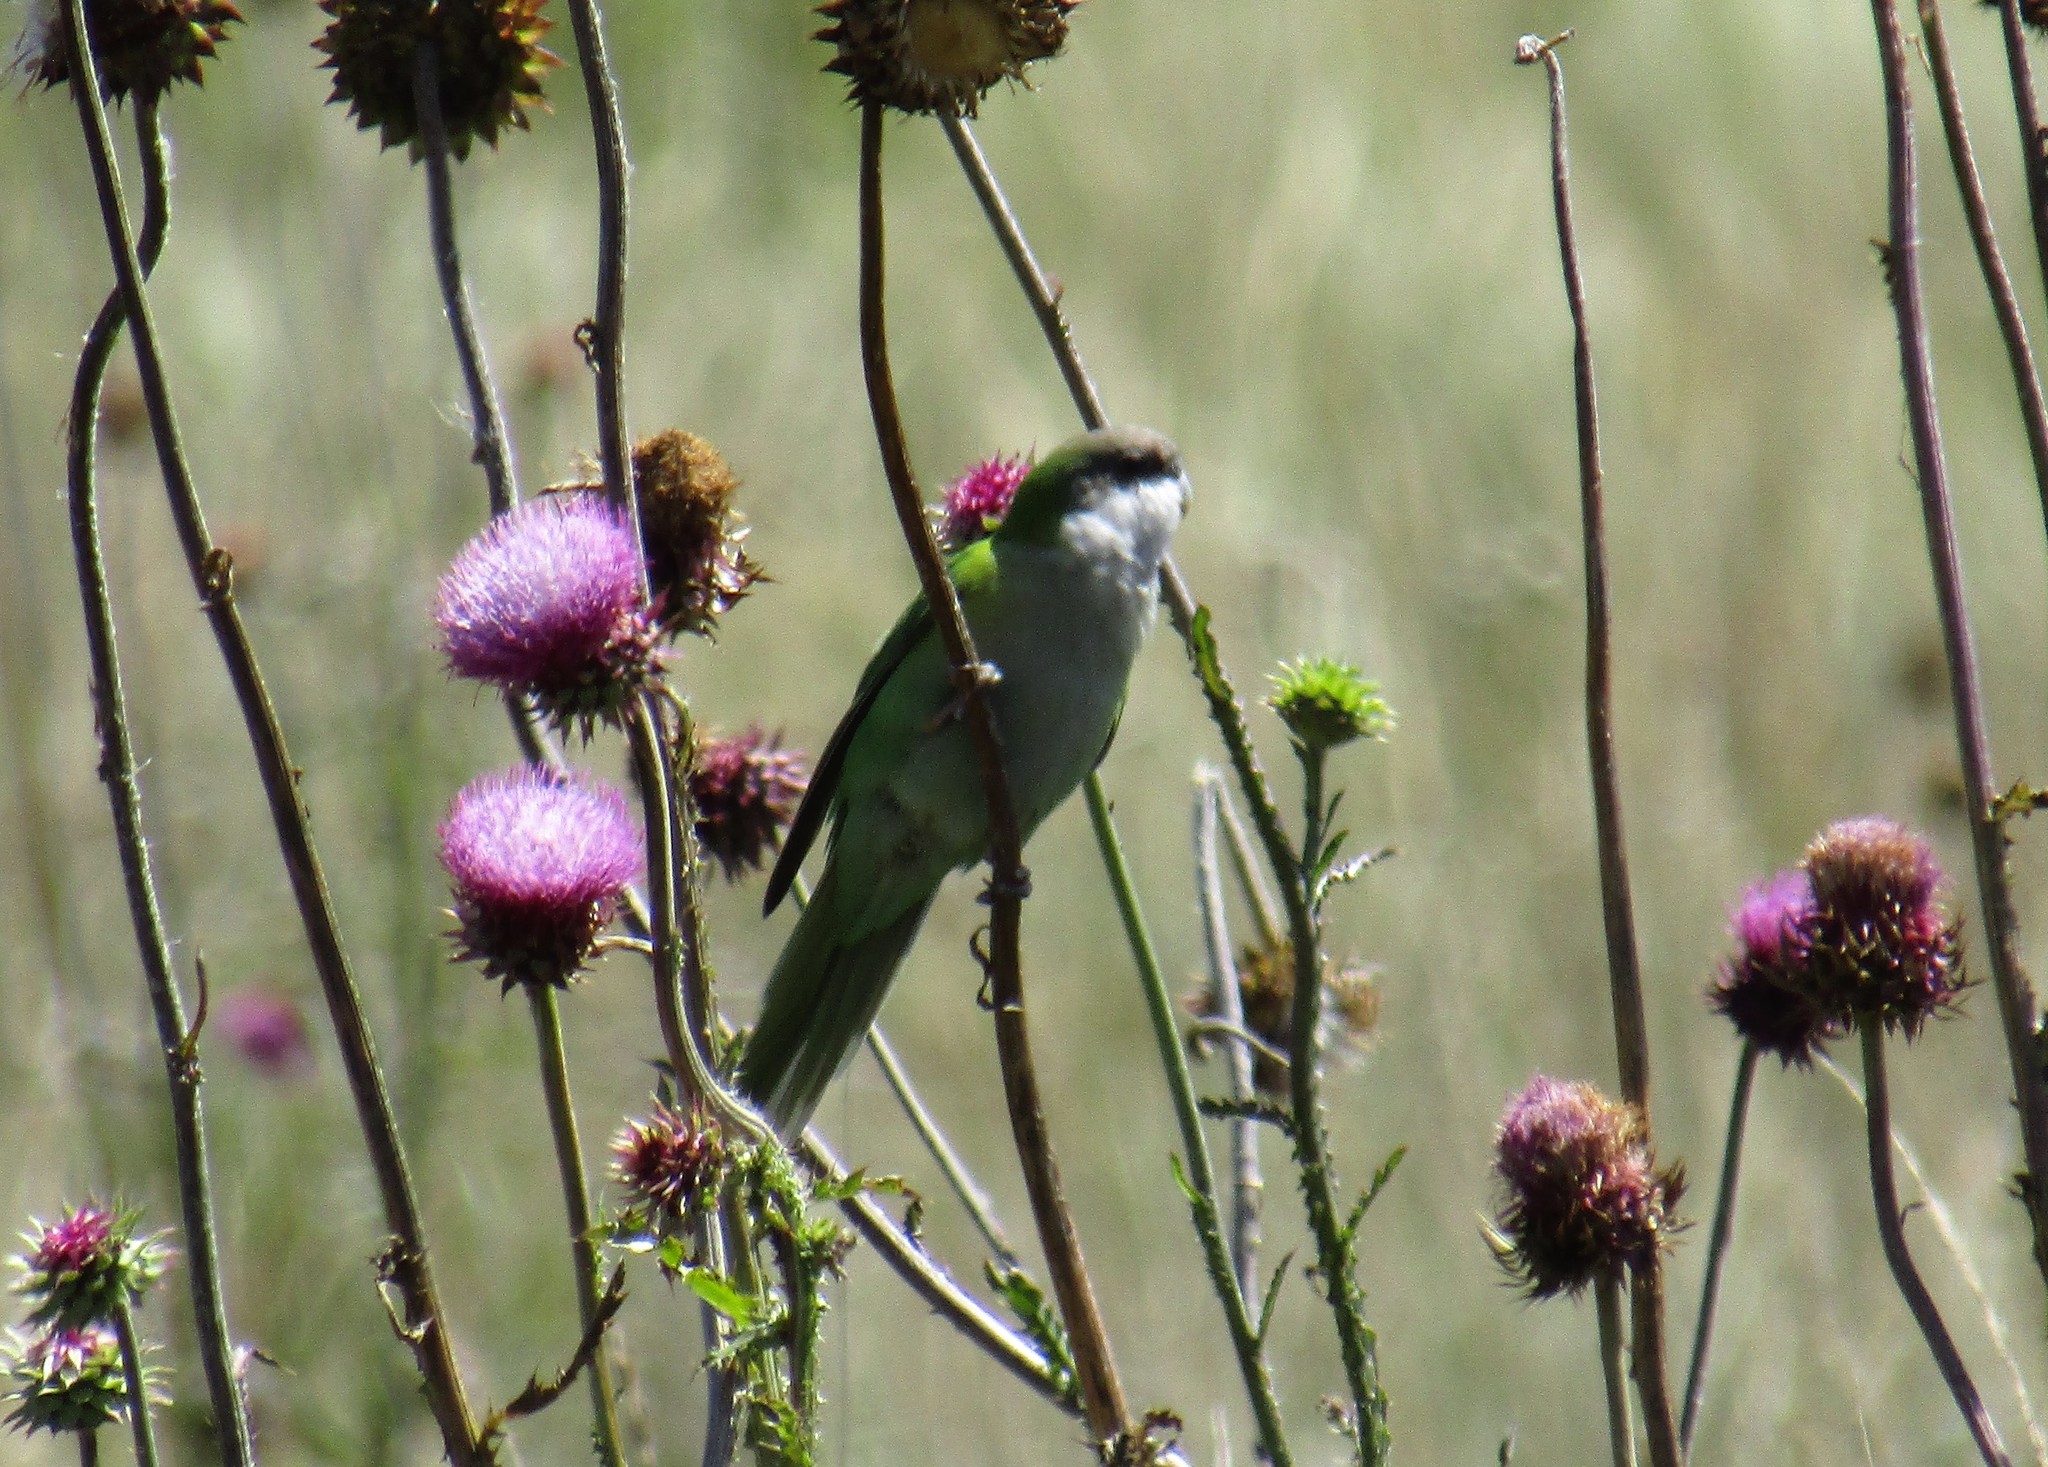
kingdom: Animalia
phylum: Chordata
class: Aves
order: Psittaciformes
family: Psittacidae
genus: Psilopsiagon
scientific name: Psilopsiagon aymara
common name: Grey-hooded parakeet
